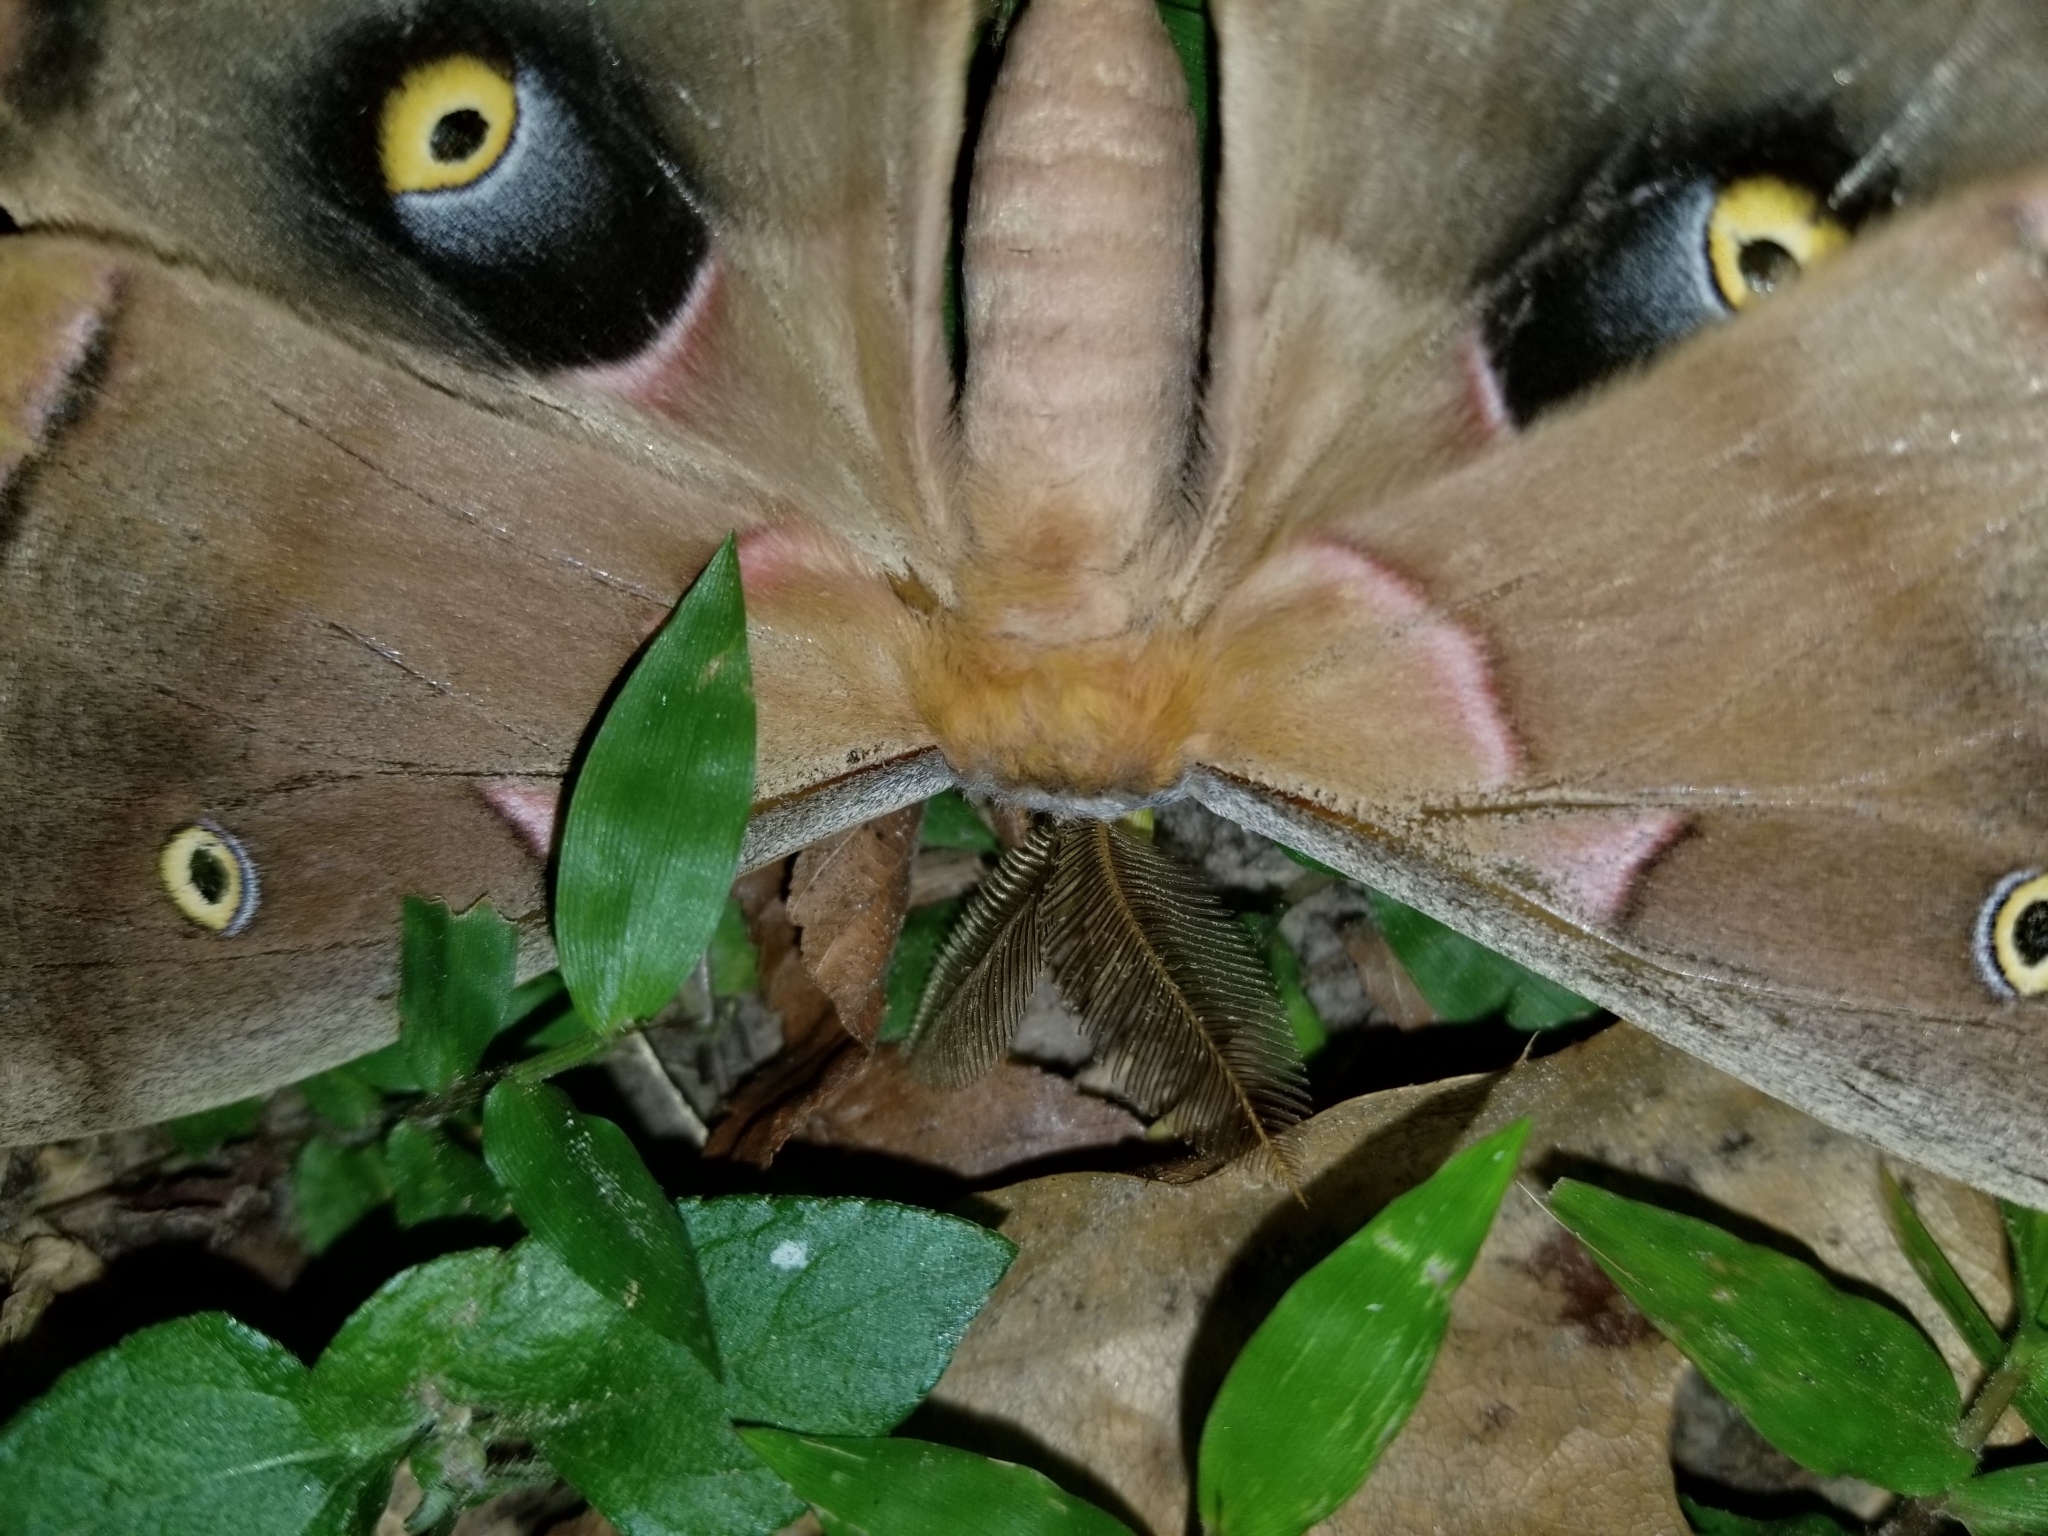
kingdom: Animalia
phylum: Arthropoda
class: Insecta
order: Lepidoptera
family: Saturniidae
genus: Antheraea
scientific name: Antheraea polyphemus
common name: Polyphemus moth
